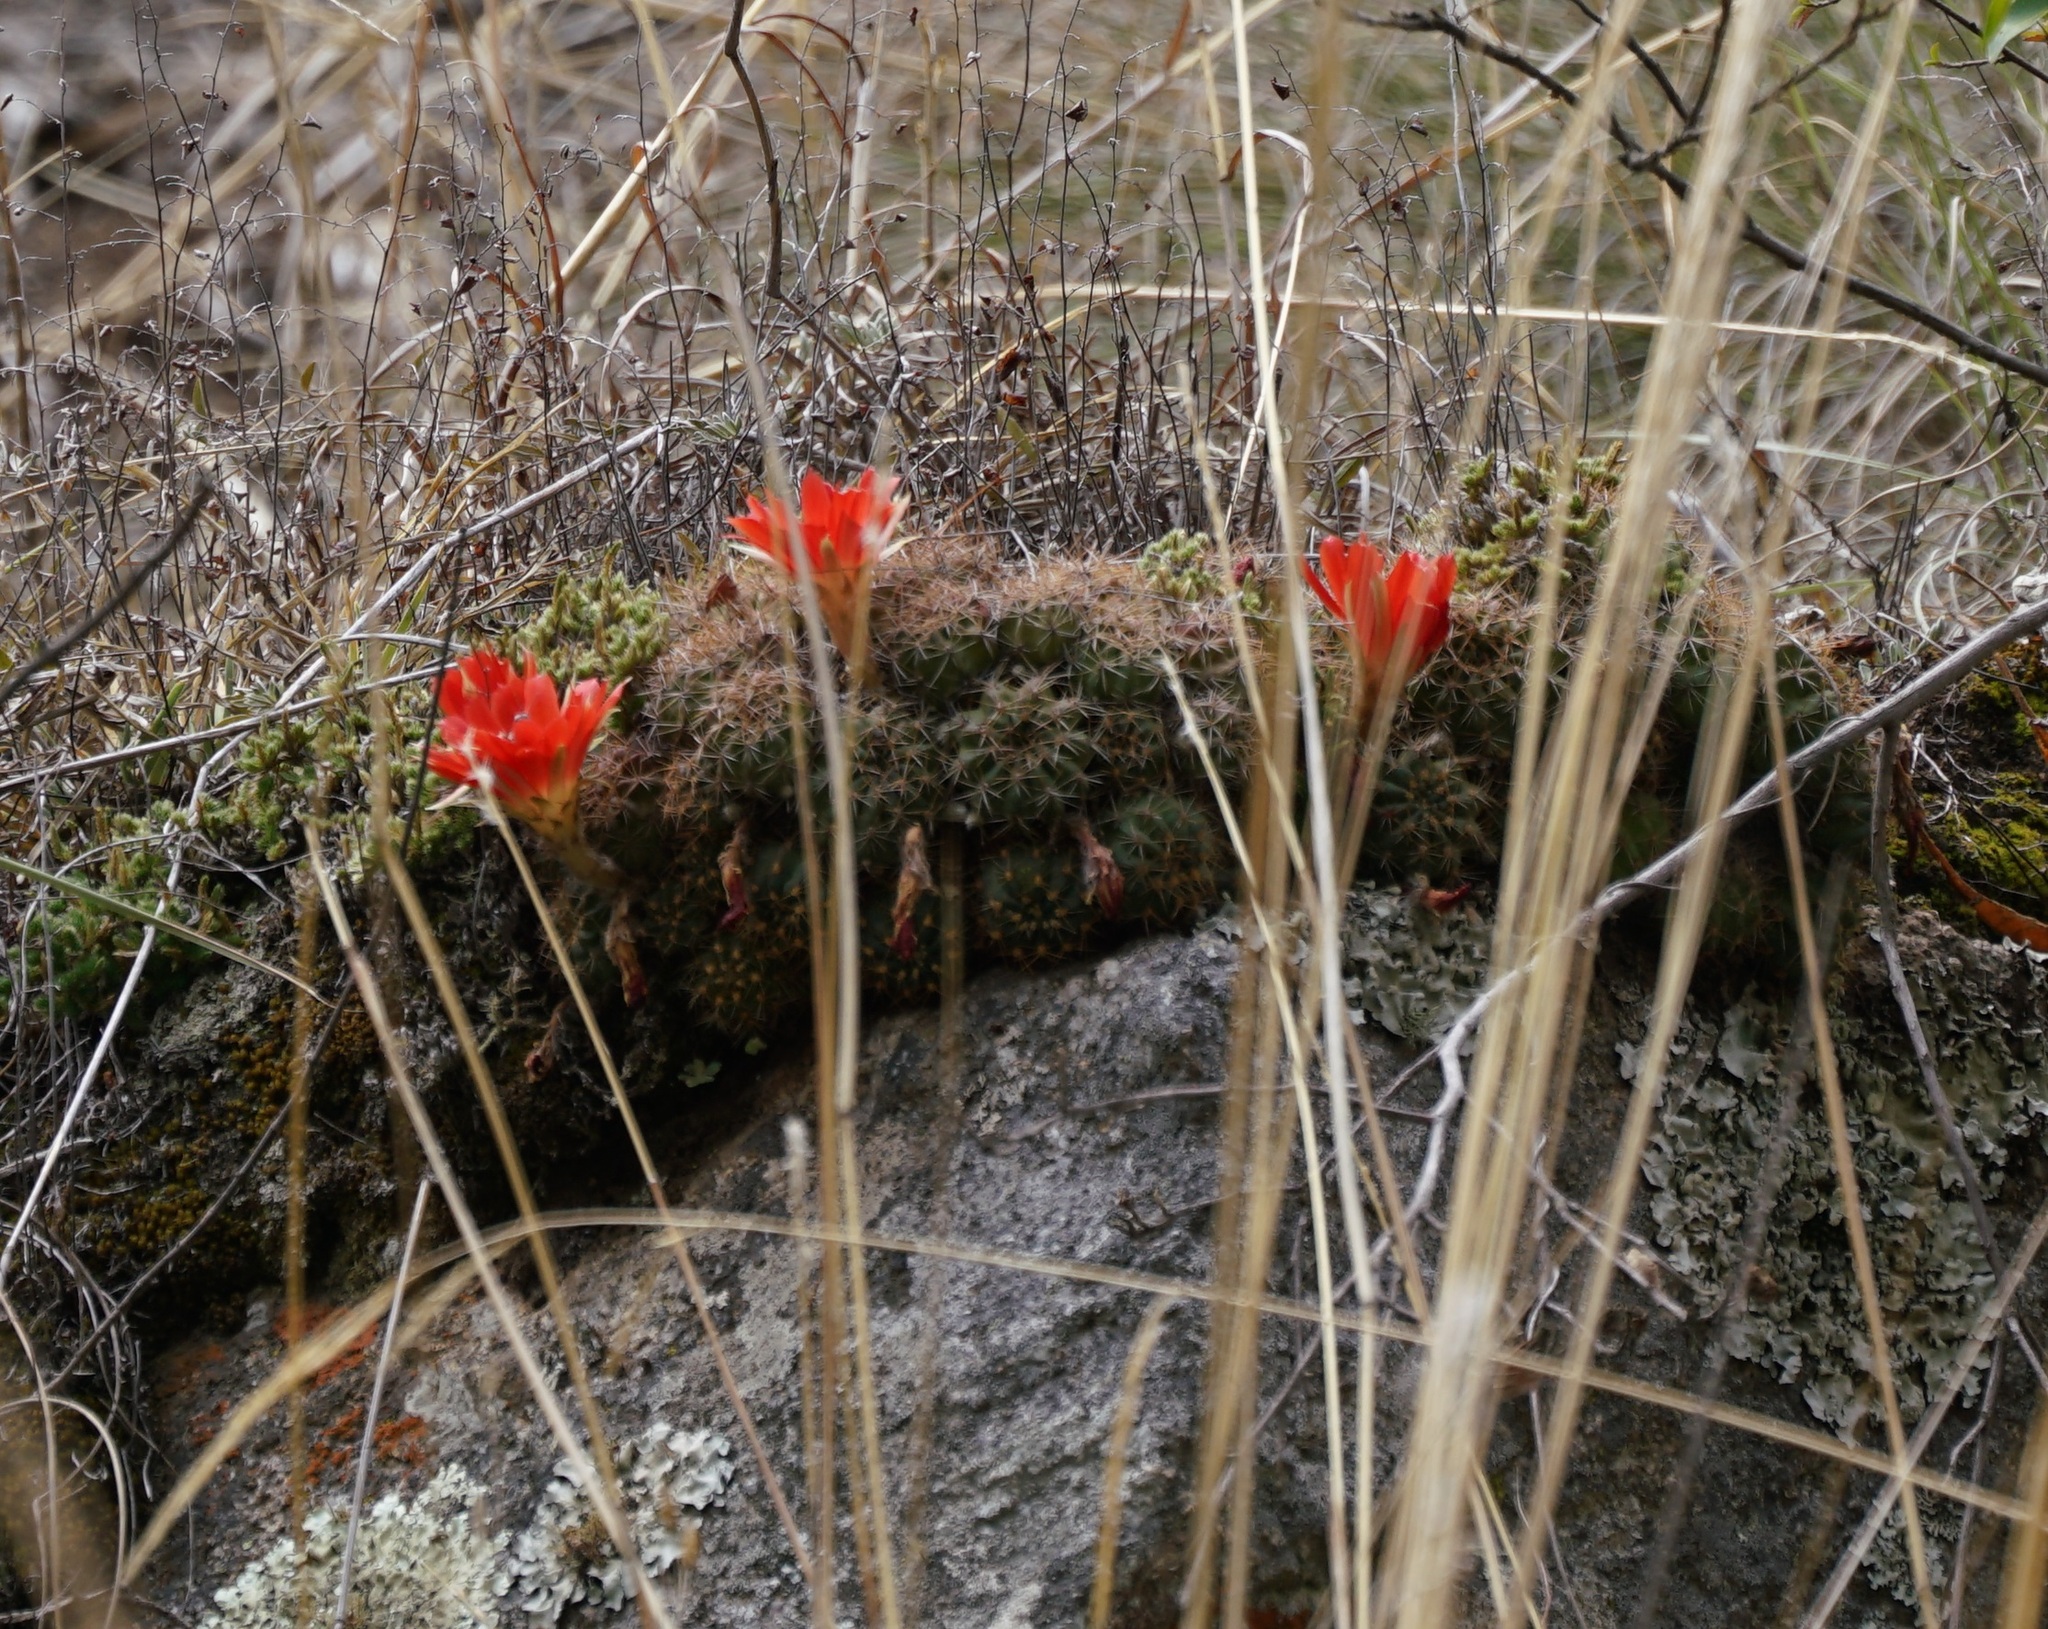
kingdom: Plantae
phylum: Tracheophyta
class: Magnoliopsida
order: Caryophyllales
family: Cactaceae
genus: Lobivia
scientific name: Lobivia hertrichiana
